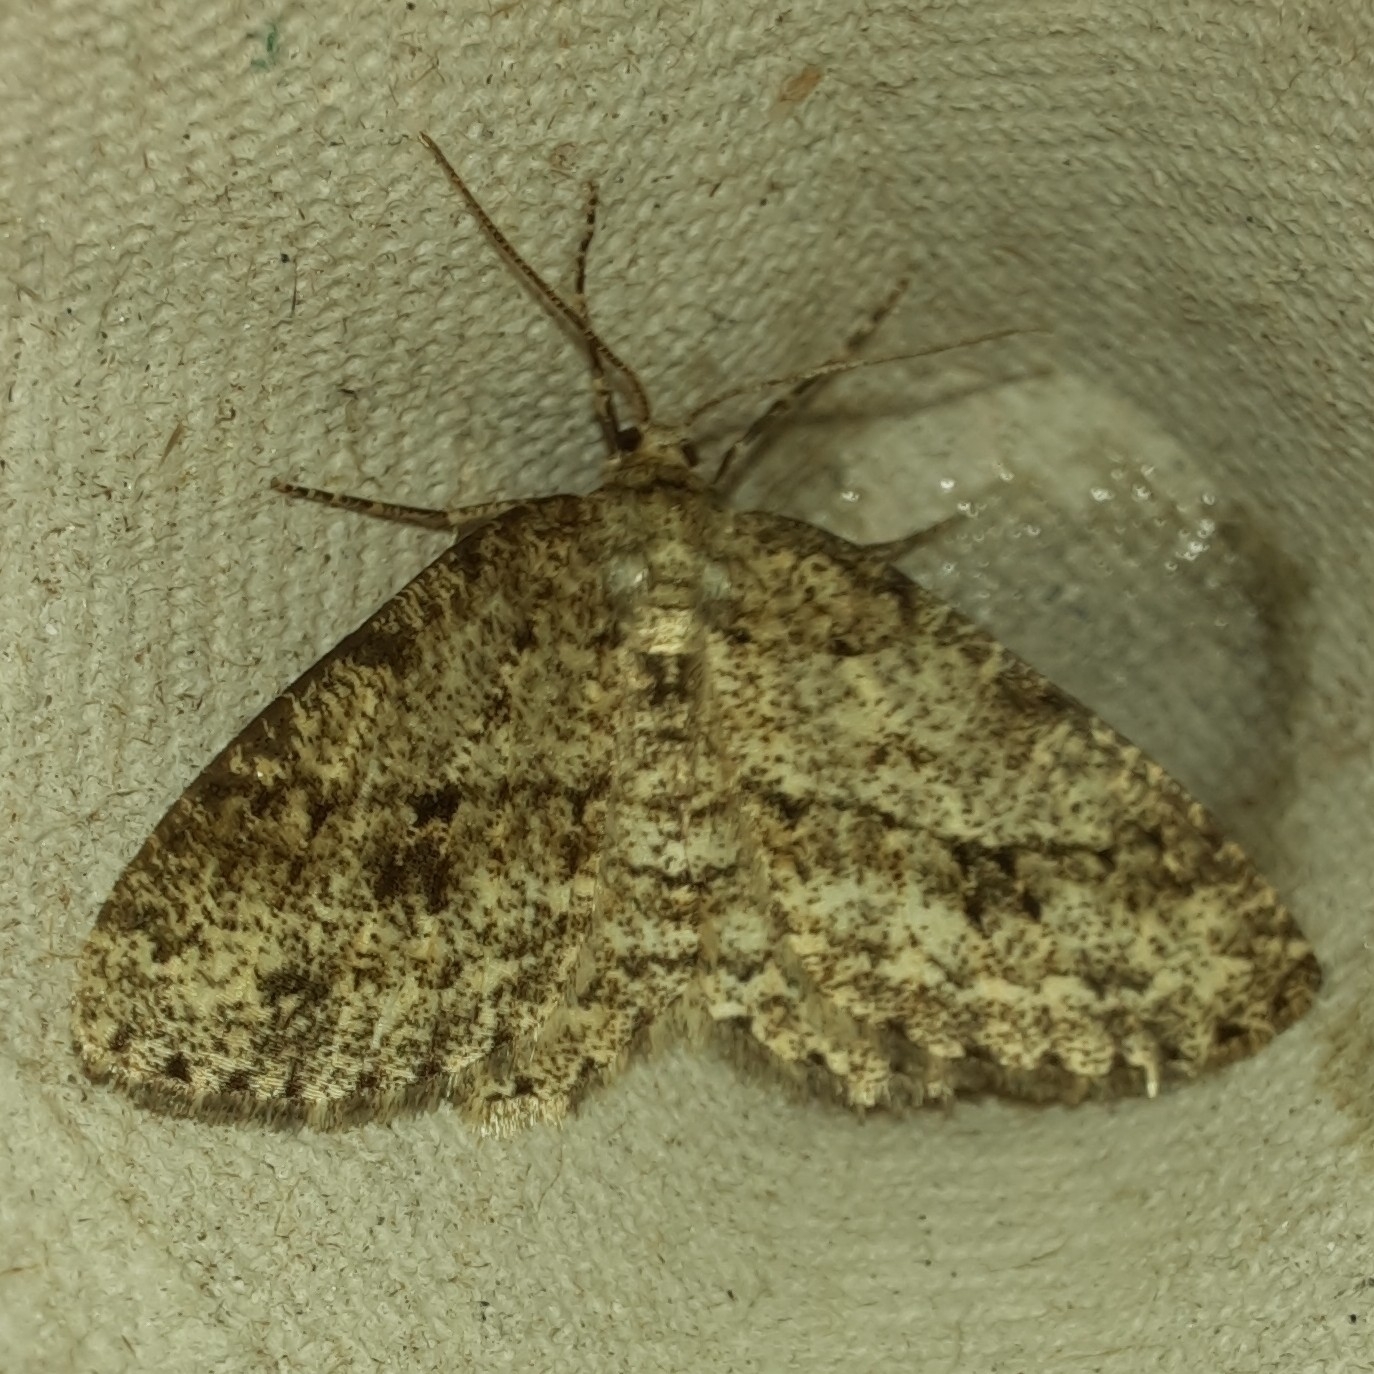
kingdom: Animalia
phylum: Arthropoda
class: Insecta
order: Lepidoptera
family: Geometridae
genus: Ectropis
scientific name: Ectropis crepuscularia
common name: Engrailed
